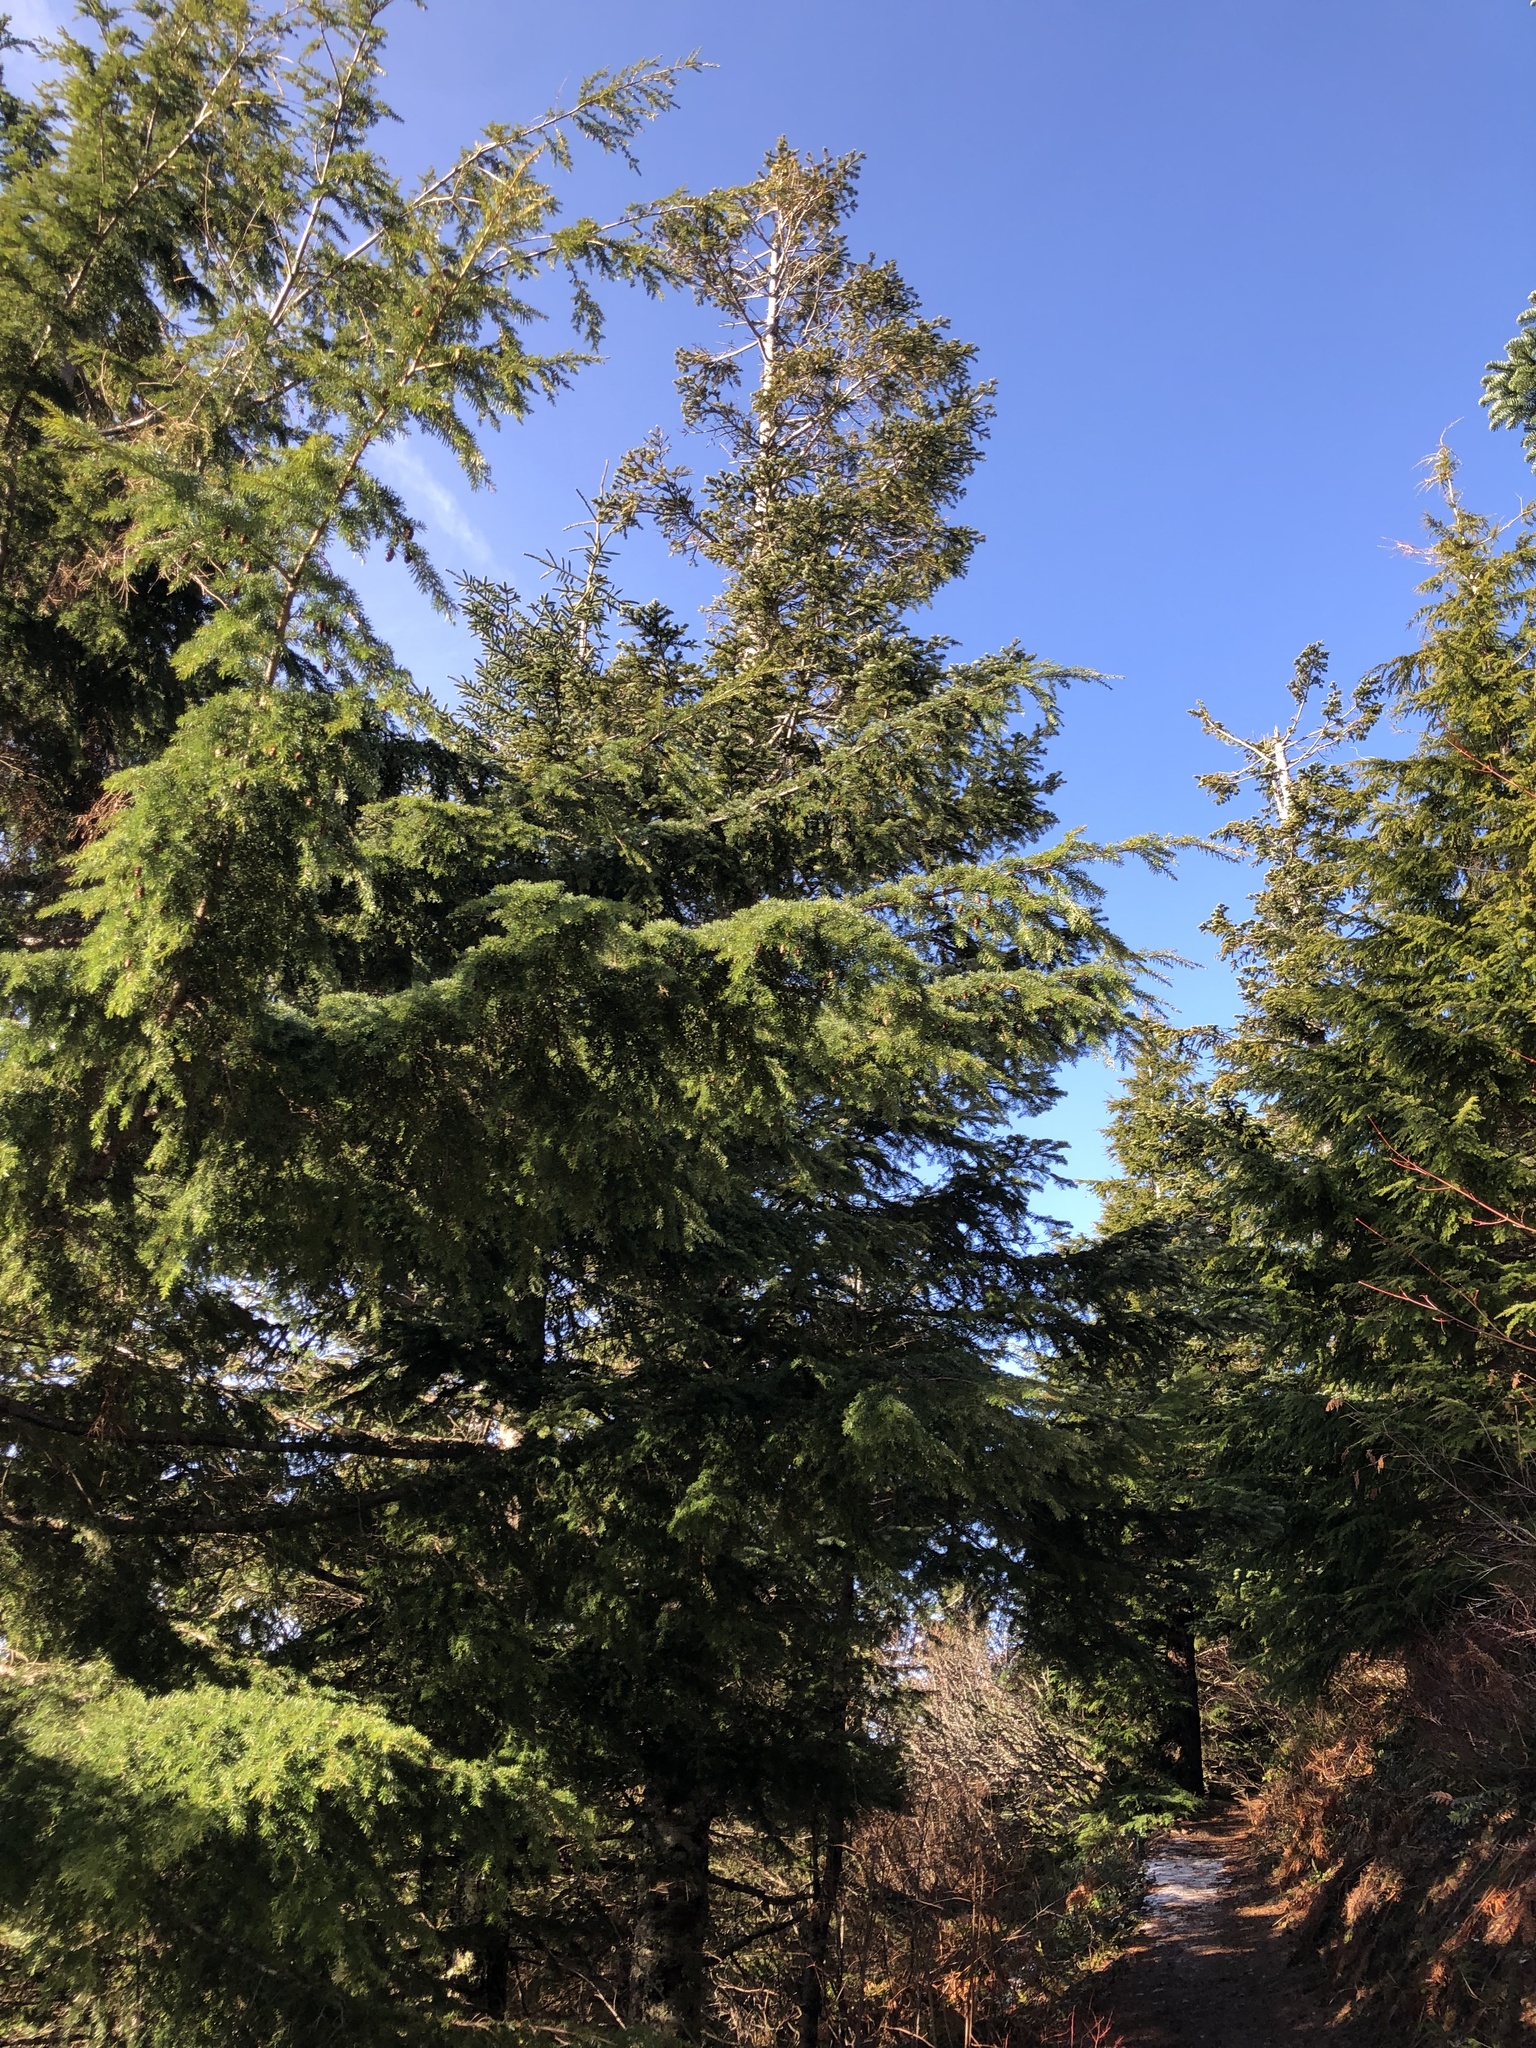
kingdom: Plantae
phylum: Tracheophyta
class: Pinopsida
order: Pinales
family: Pinaceae
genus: Abies
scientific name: Abies amabilis
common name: Pacific silver fir
